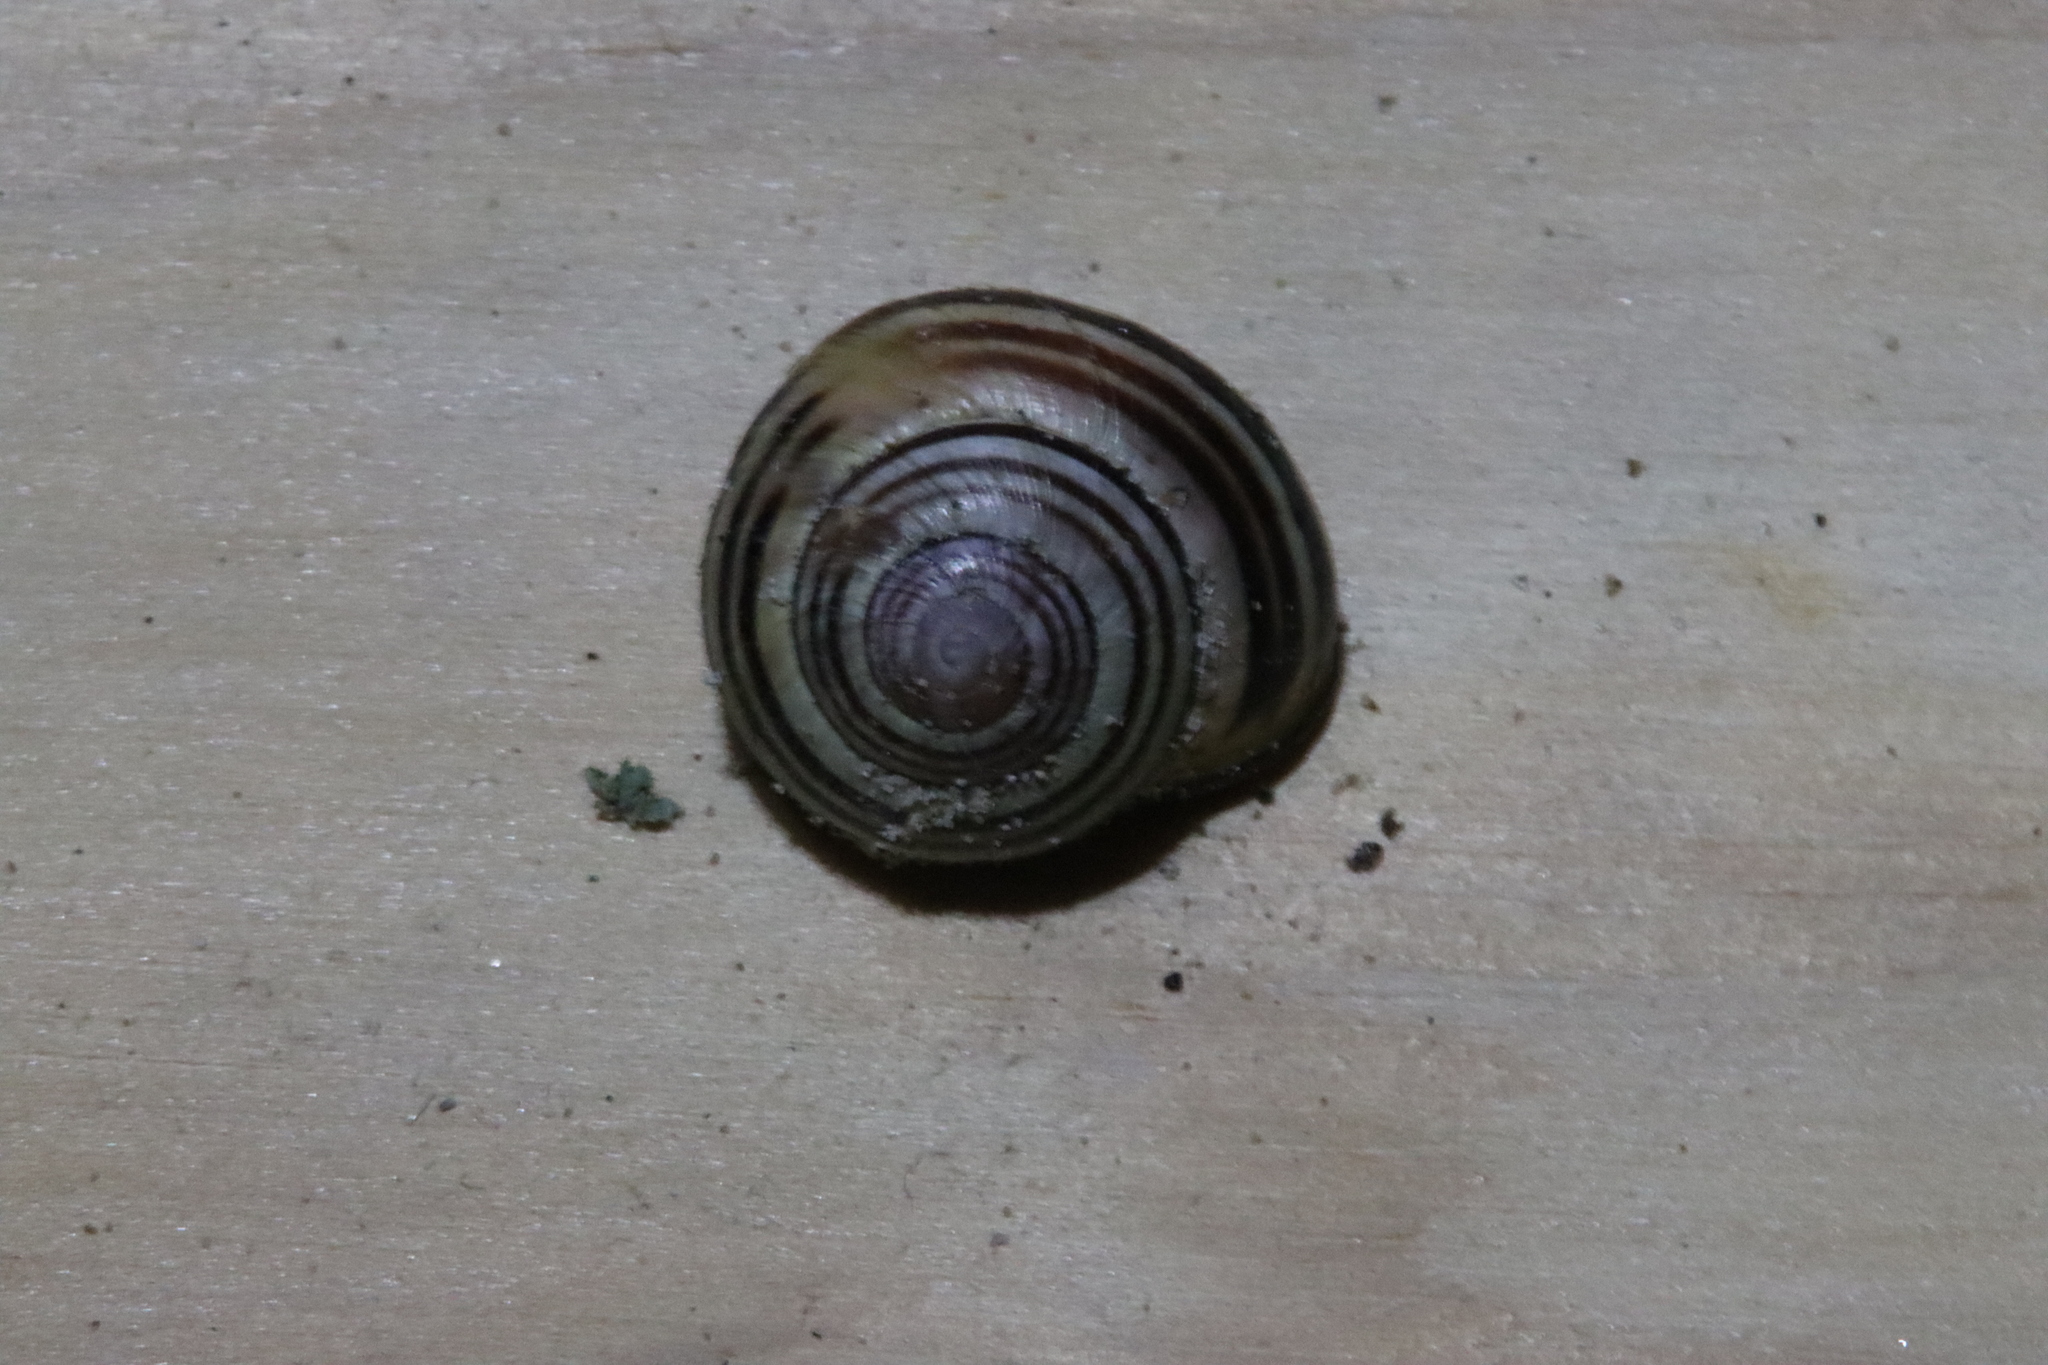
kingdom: Animalia
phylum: Mollusca
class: Gastropoda
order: Stylommatophora
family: Helicidae
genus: Cepaea
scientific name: Cepaea nemoralis
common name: Grovesnail
